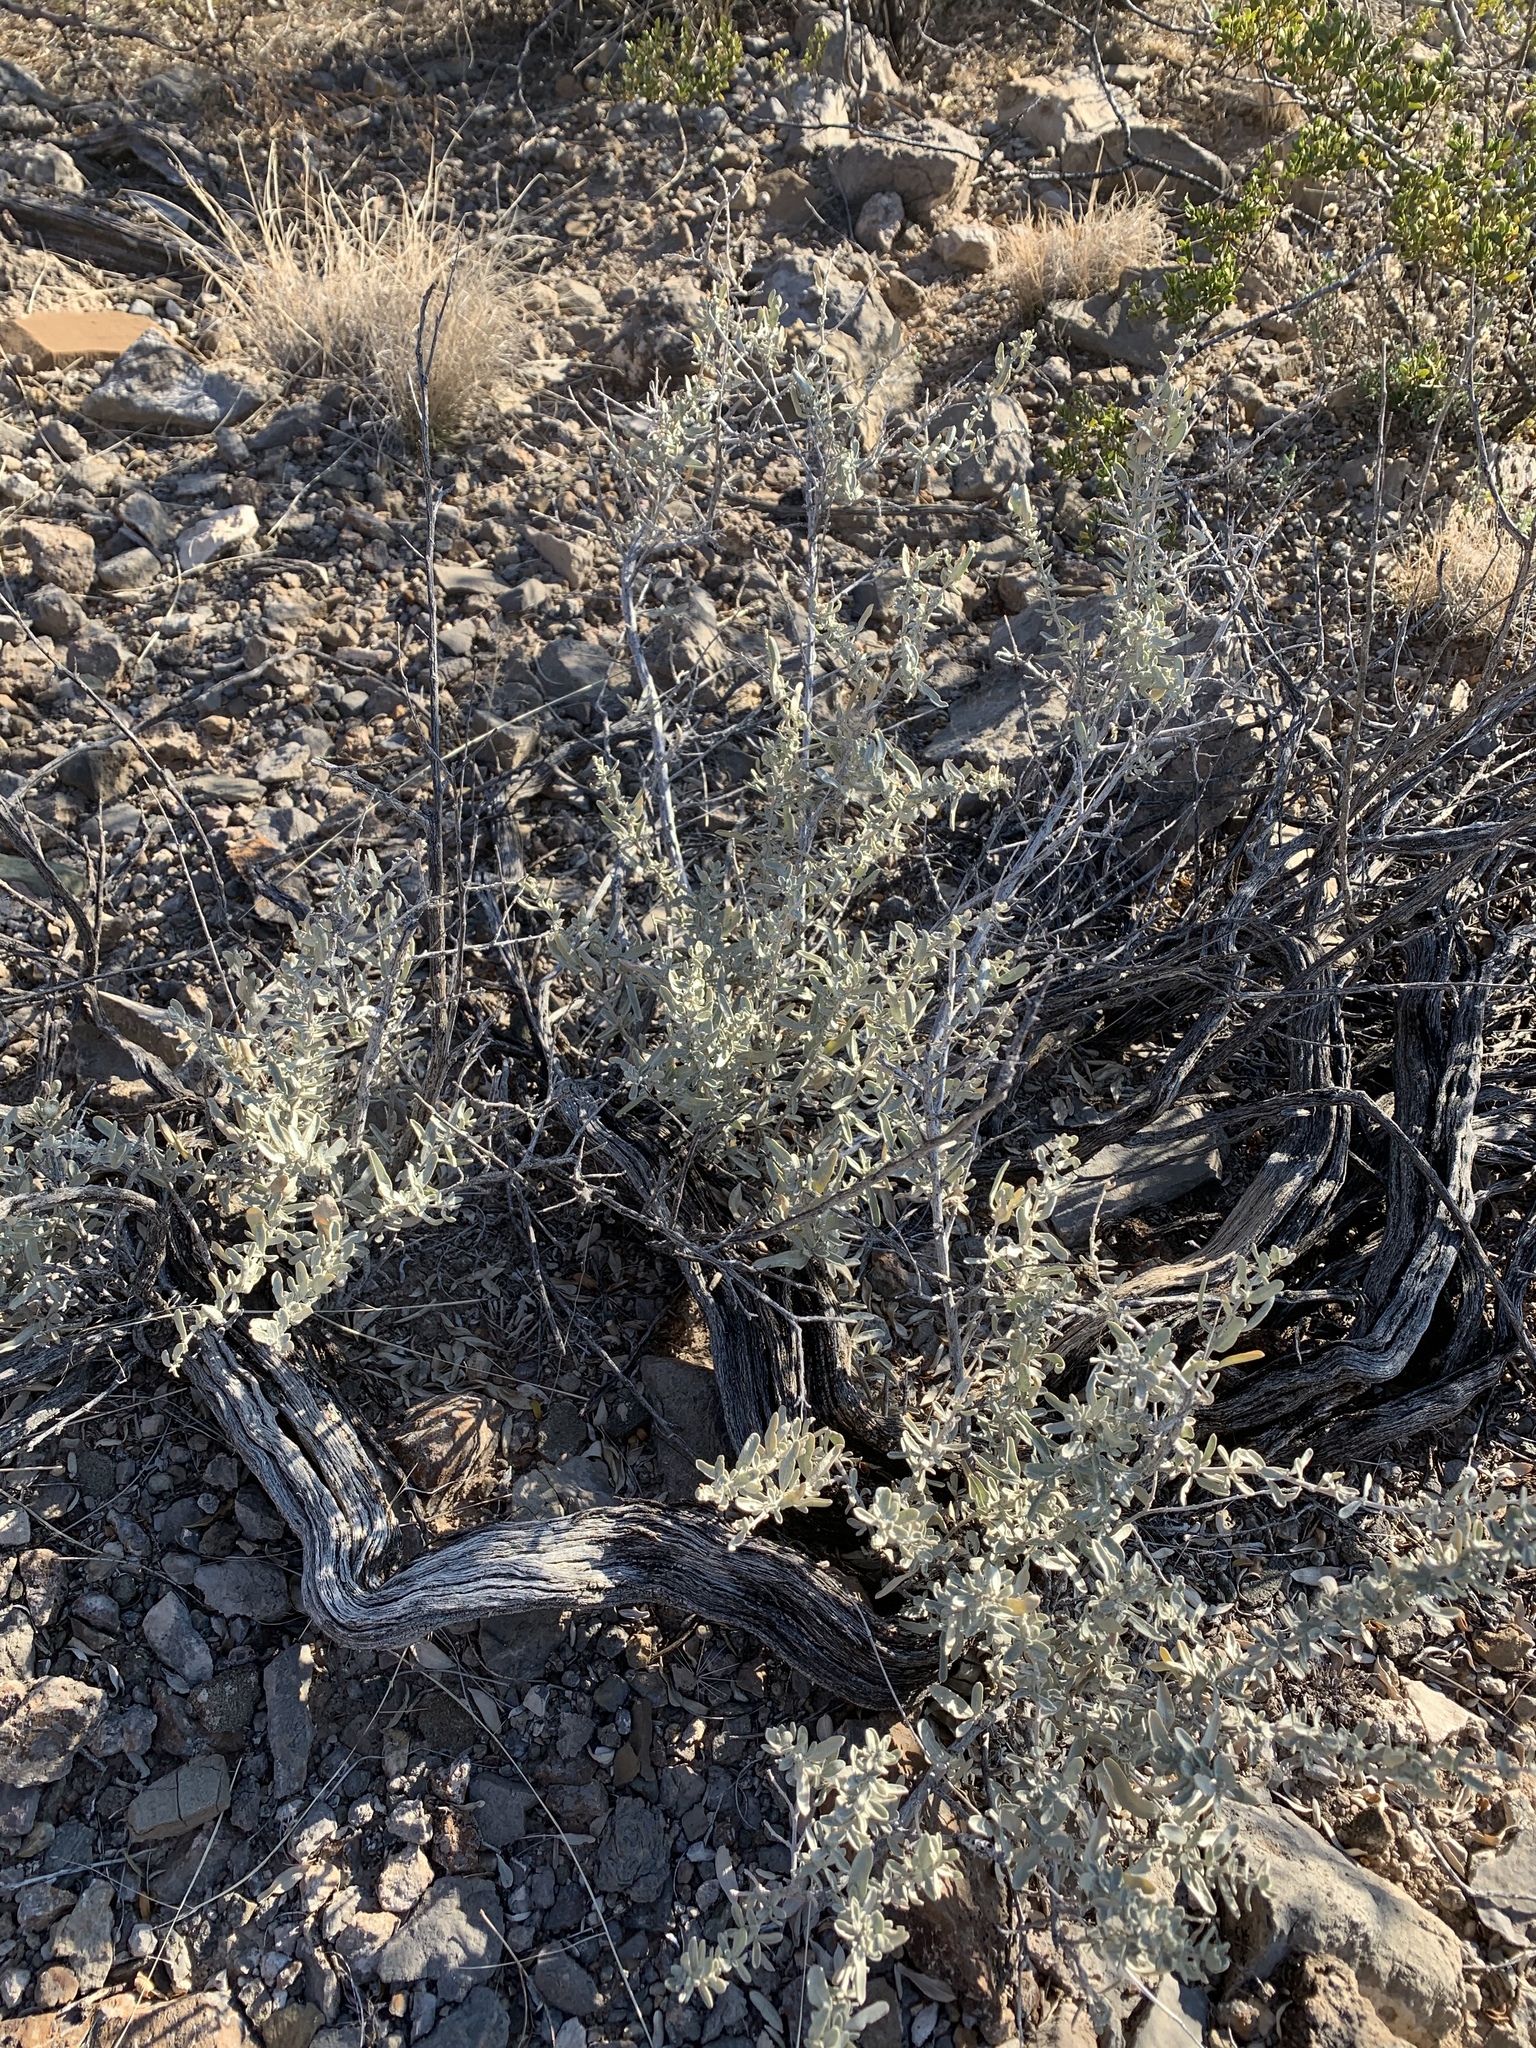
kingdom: Plantae
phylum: Tracheophyta
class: Magnoliopsida
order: Caryophyllales
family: Amaranthaceae
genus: Atriplex
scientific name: Atriplex canescens
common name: Four-wing saltbush
